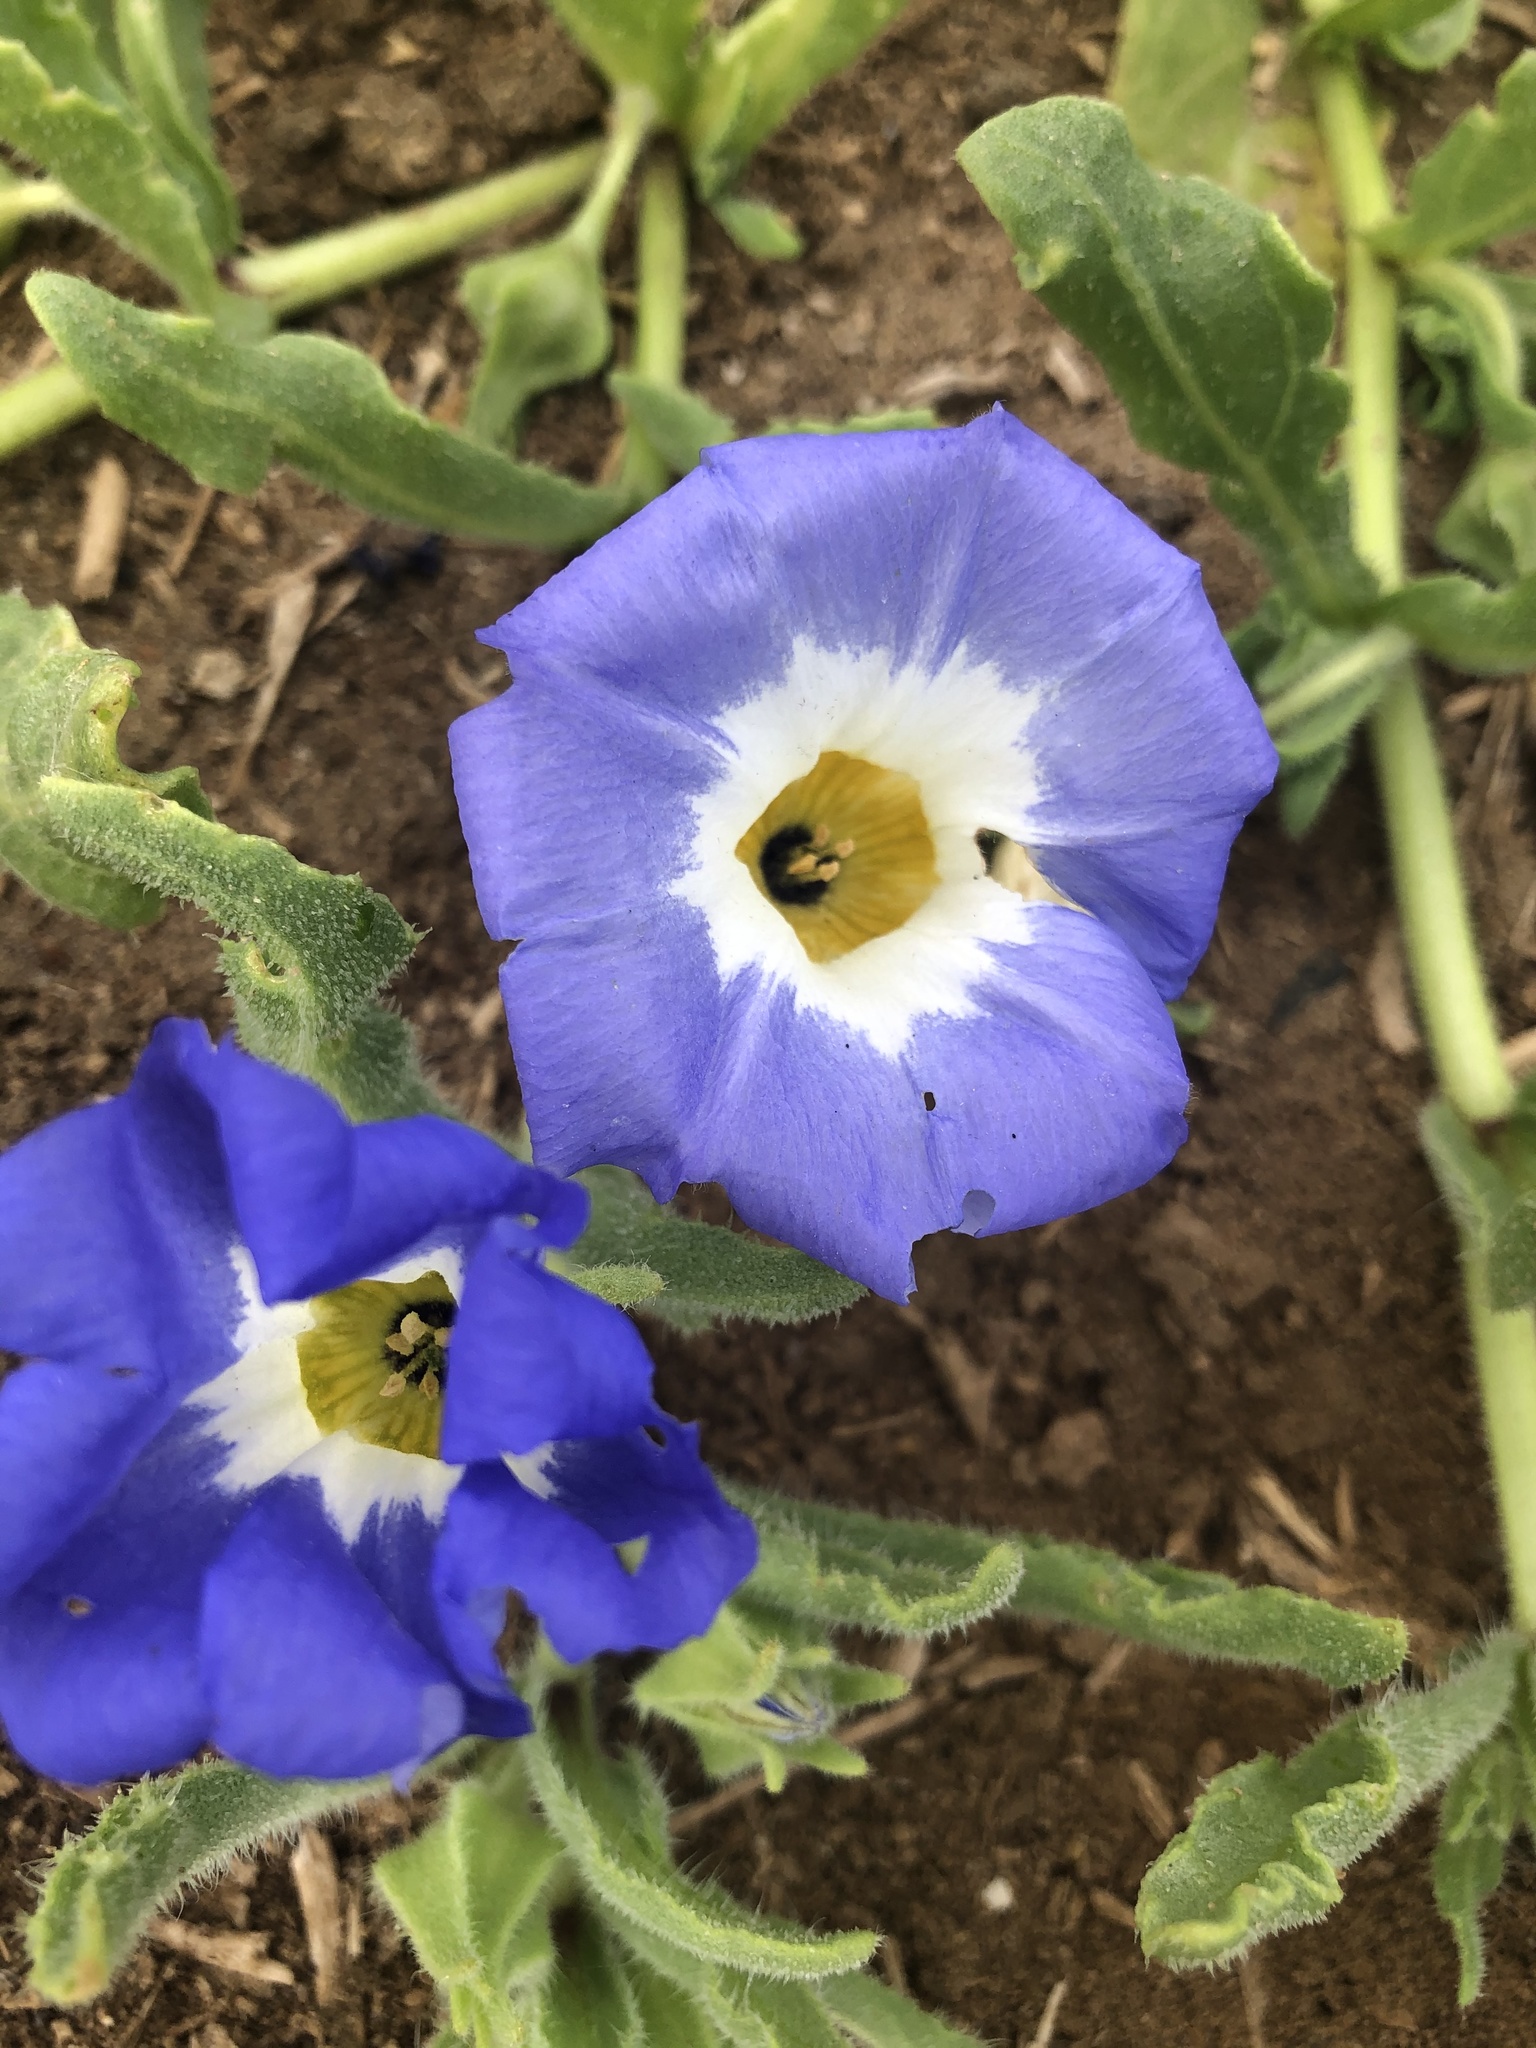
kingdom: Plantae
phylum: Tracheophyta
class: Magnoliopsida
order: Solanales
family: Solanaceae
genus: Nolana
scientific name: Nolana acuminata
